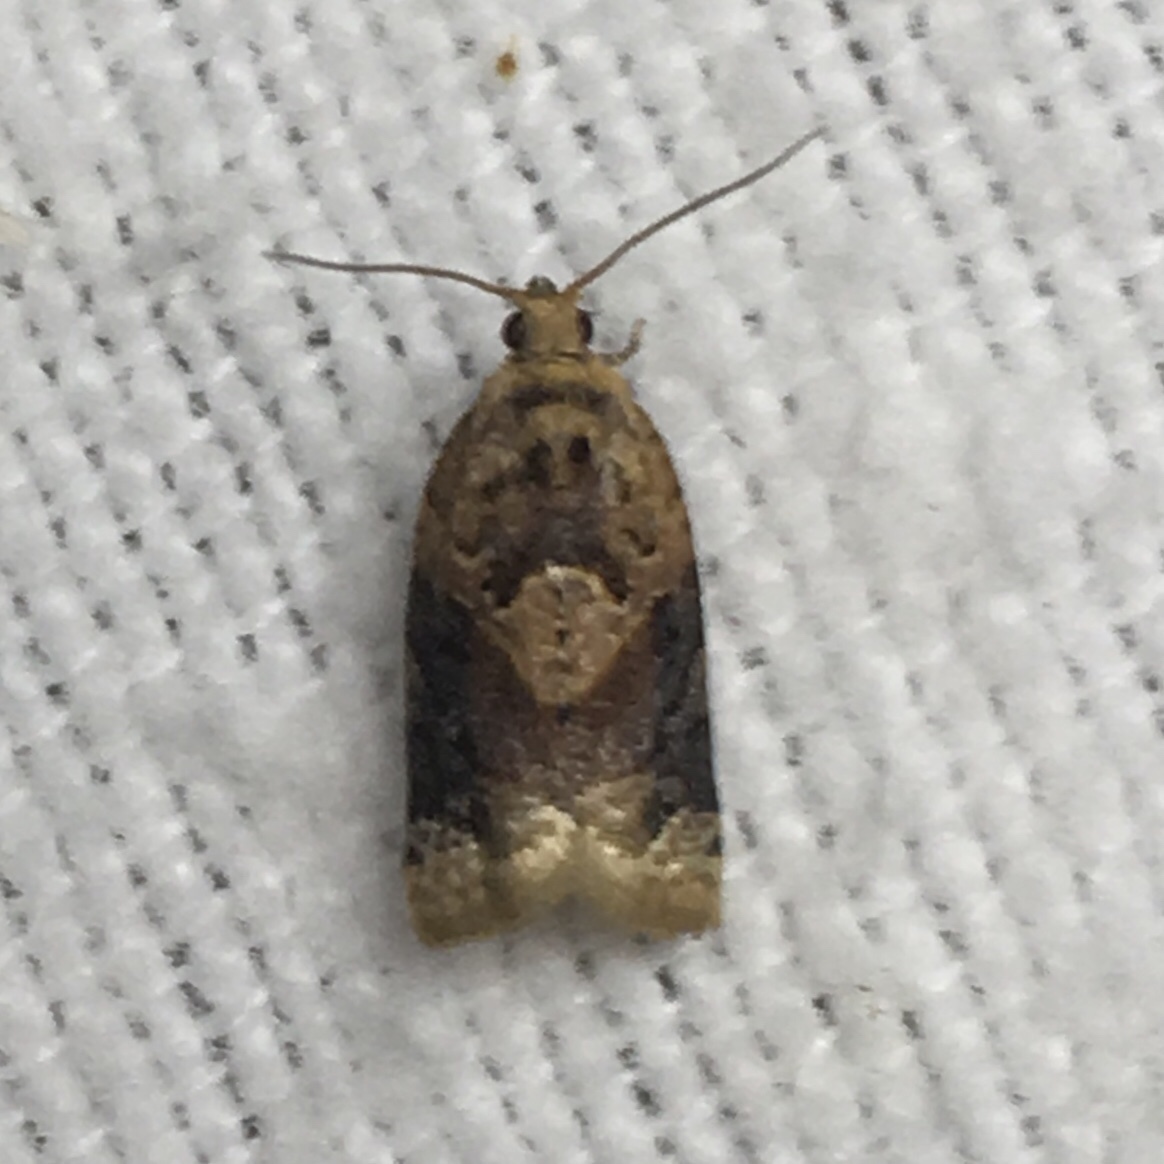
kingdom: Animalia
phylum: Arthropoda
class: Insecta
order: Lepidoptera
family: Tortricidae
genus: Argyrotaenia
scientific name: Argyrotaenia velutinana
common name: Red-banded leafroller moth
